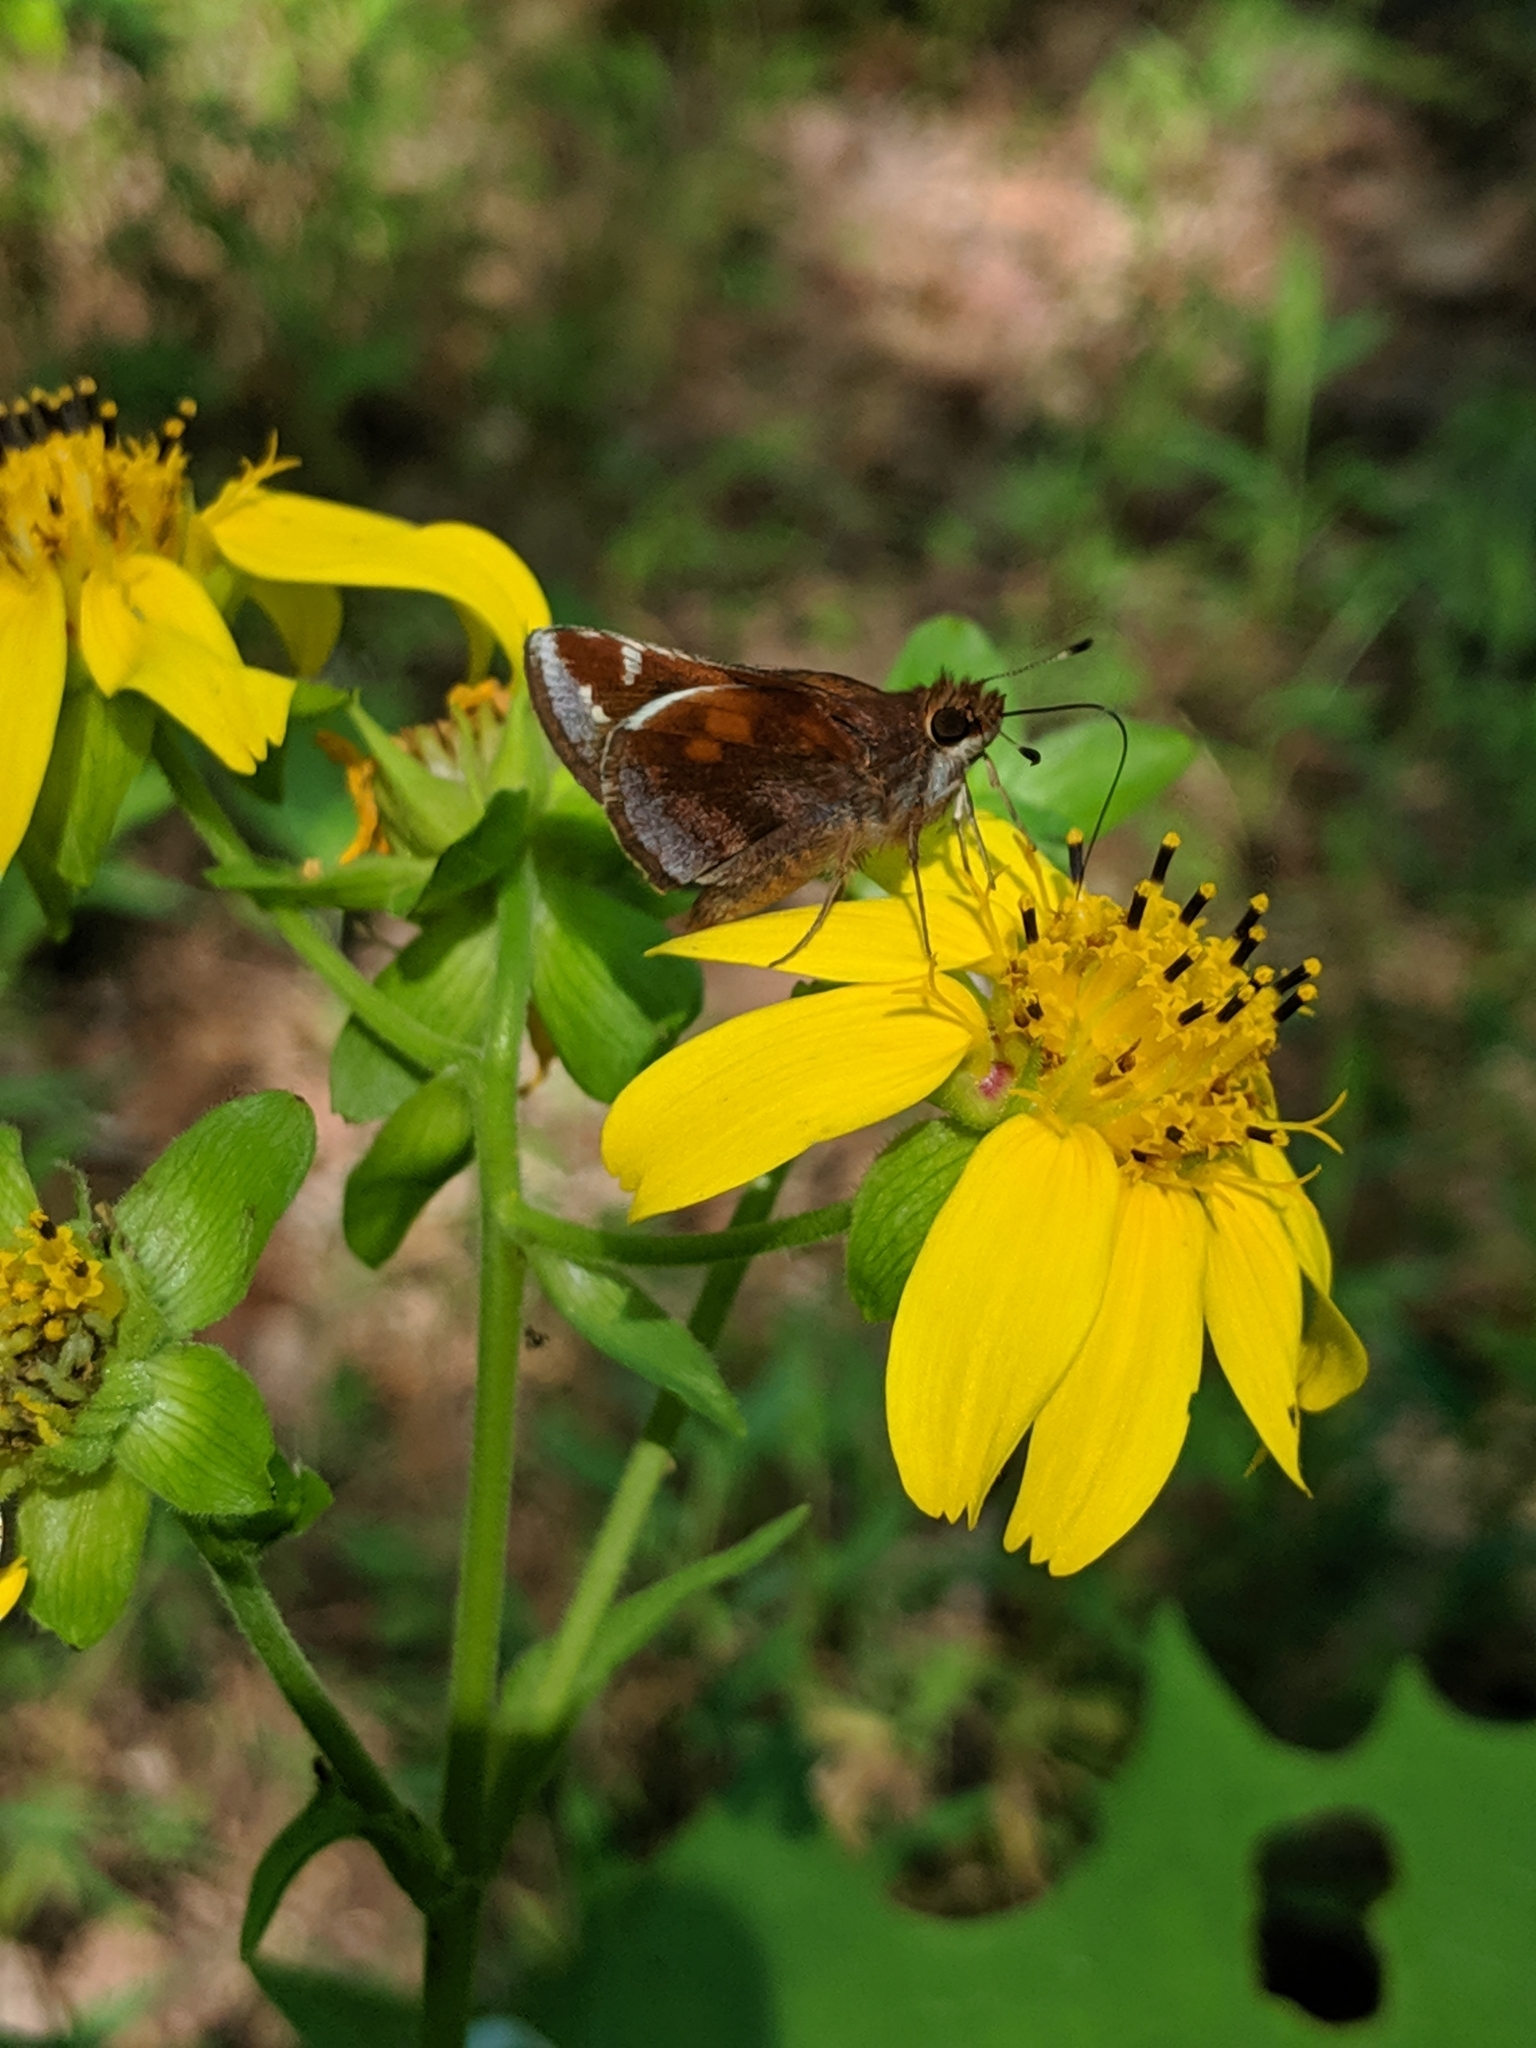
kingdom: Animalia
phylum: Arthropoda
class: Insecta
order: Lepidoptera
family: Hesperiidae
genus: Lon
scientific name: Lon zabulon
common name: Zabulon skipper
